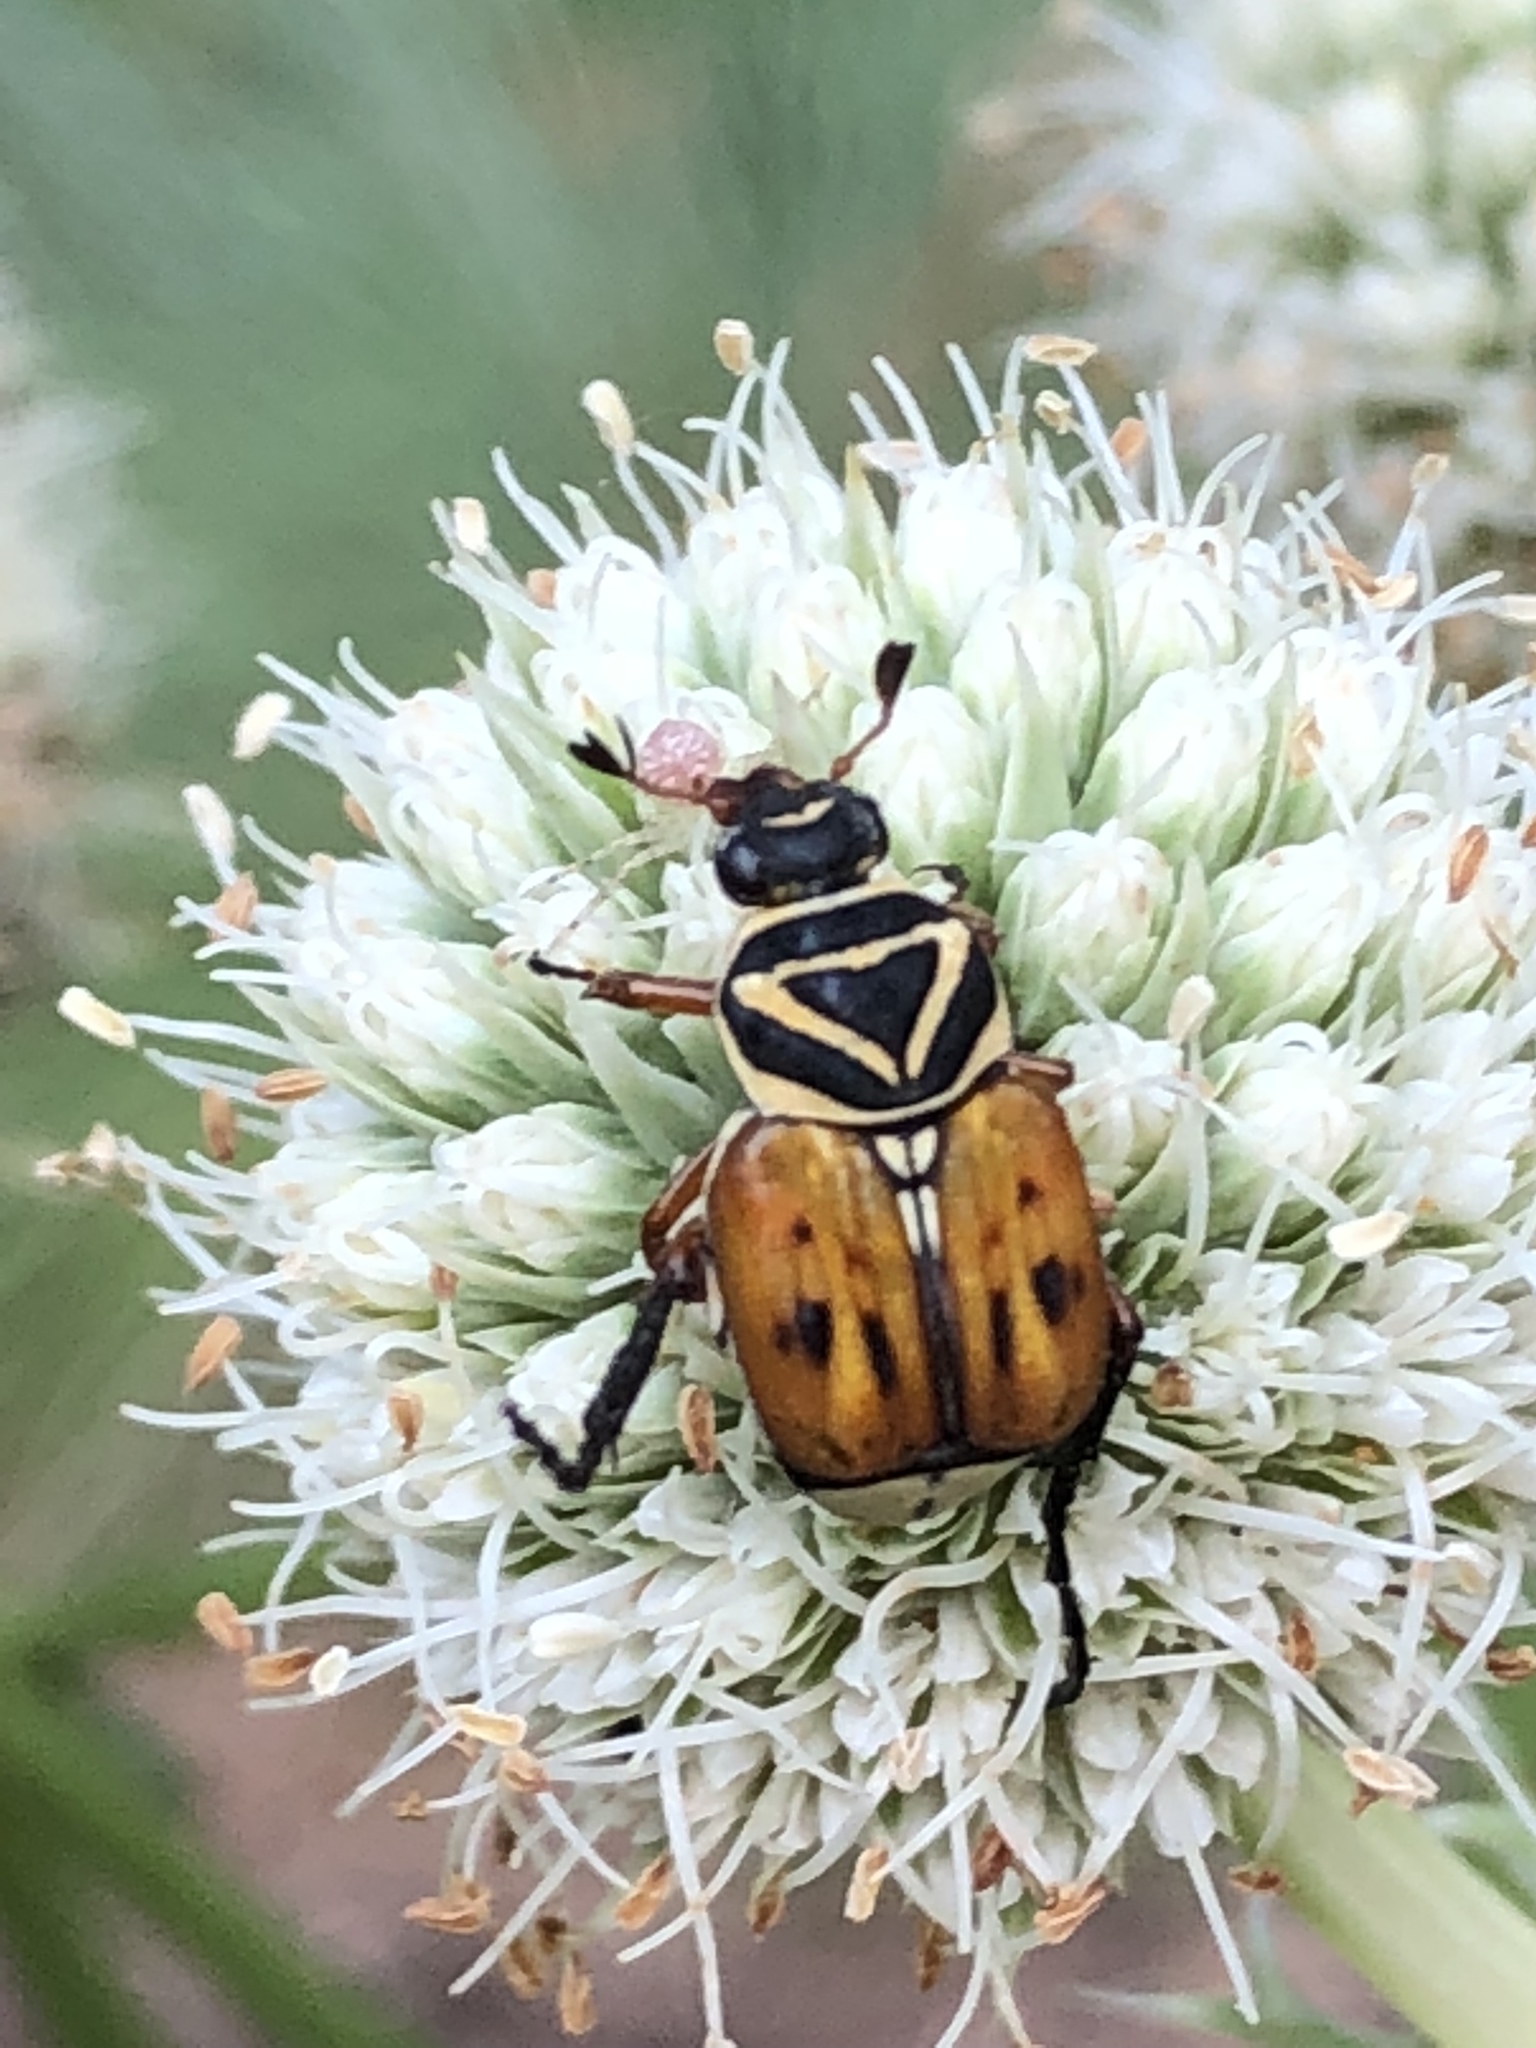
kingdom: Animalia
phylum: Arthropoda
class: Insecta
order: Coleoptera
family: Scarabaeidae
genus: Trigonopeltastes
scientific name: Trigonopeltastes delta
